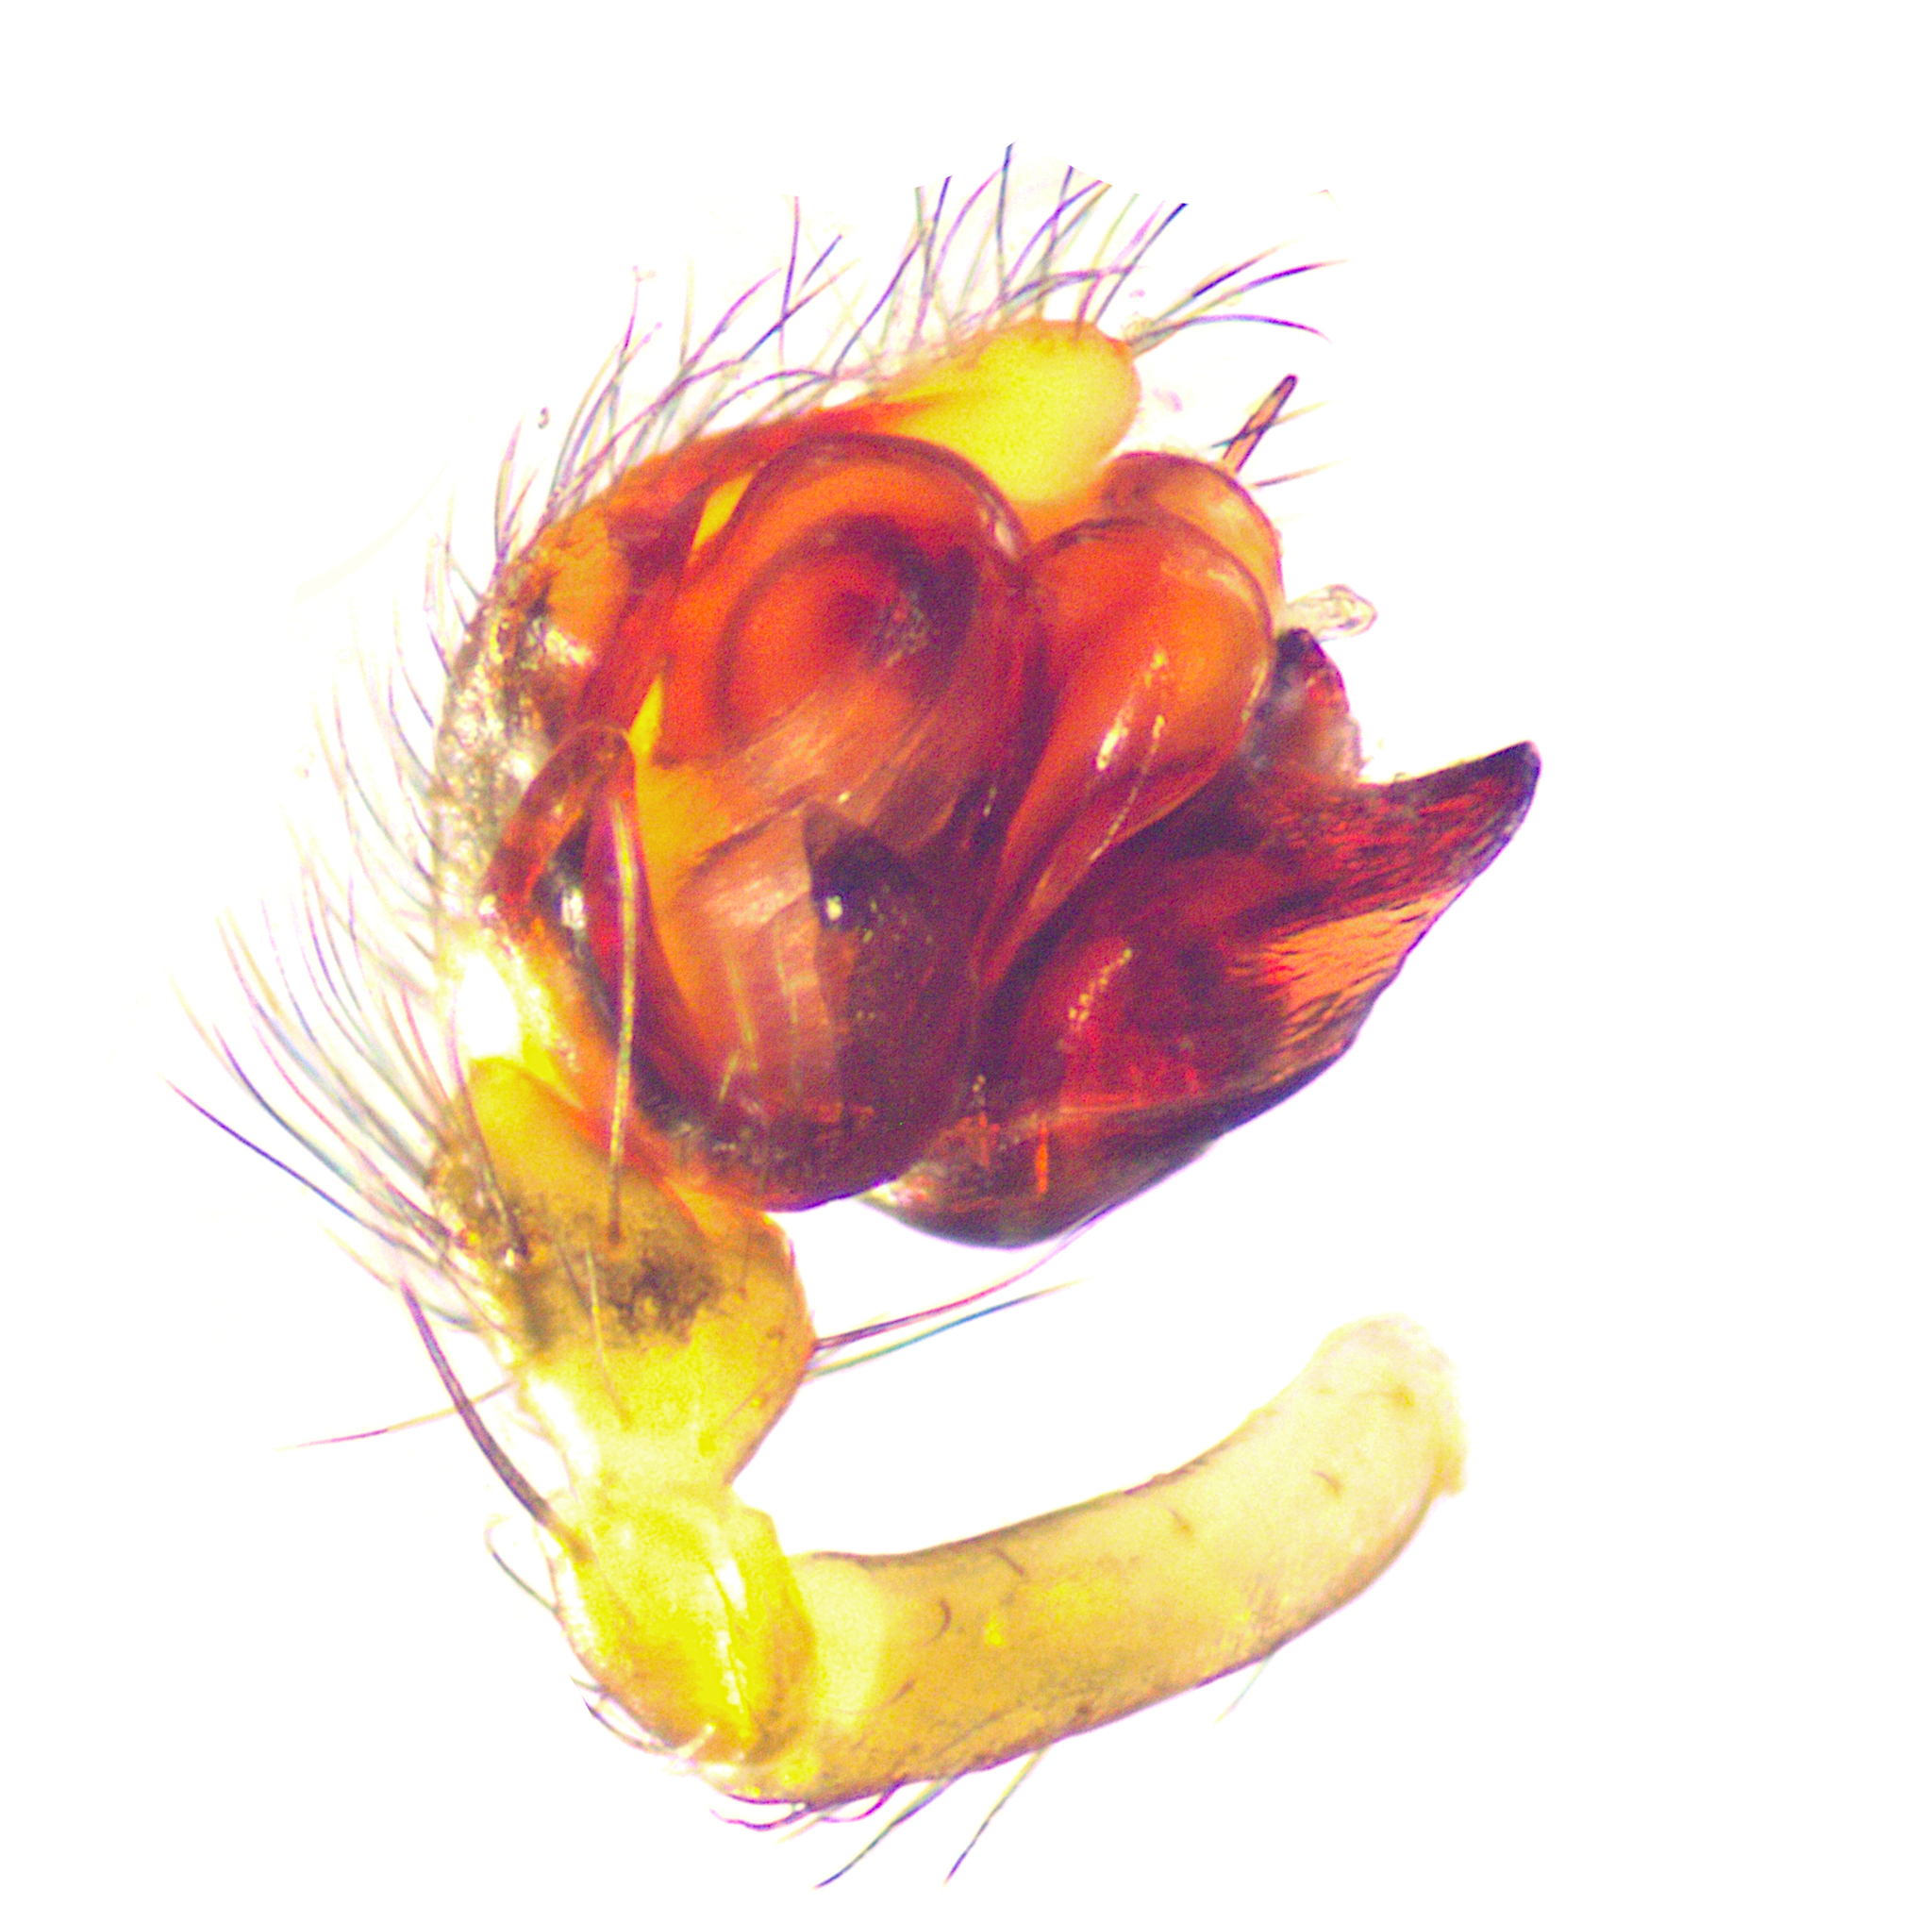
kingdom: Animalia
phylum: Arthropoda
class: Arachnida
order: Araneae
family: Linyphiidae
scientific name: Linyphiidae
